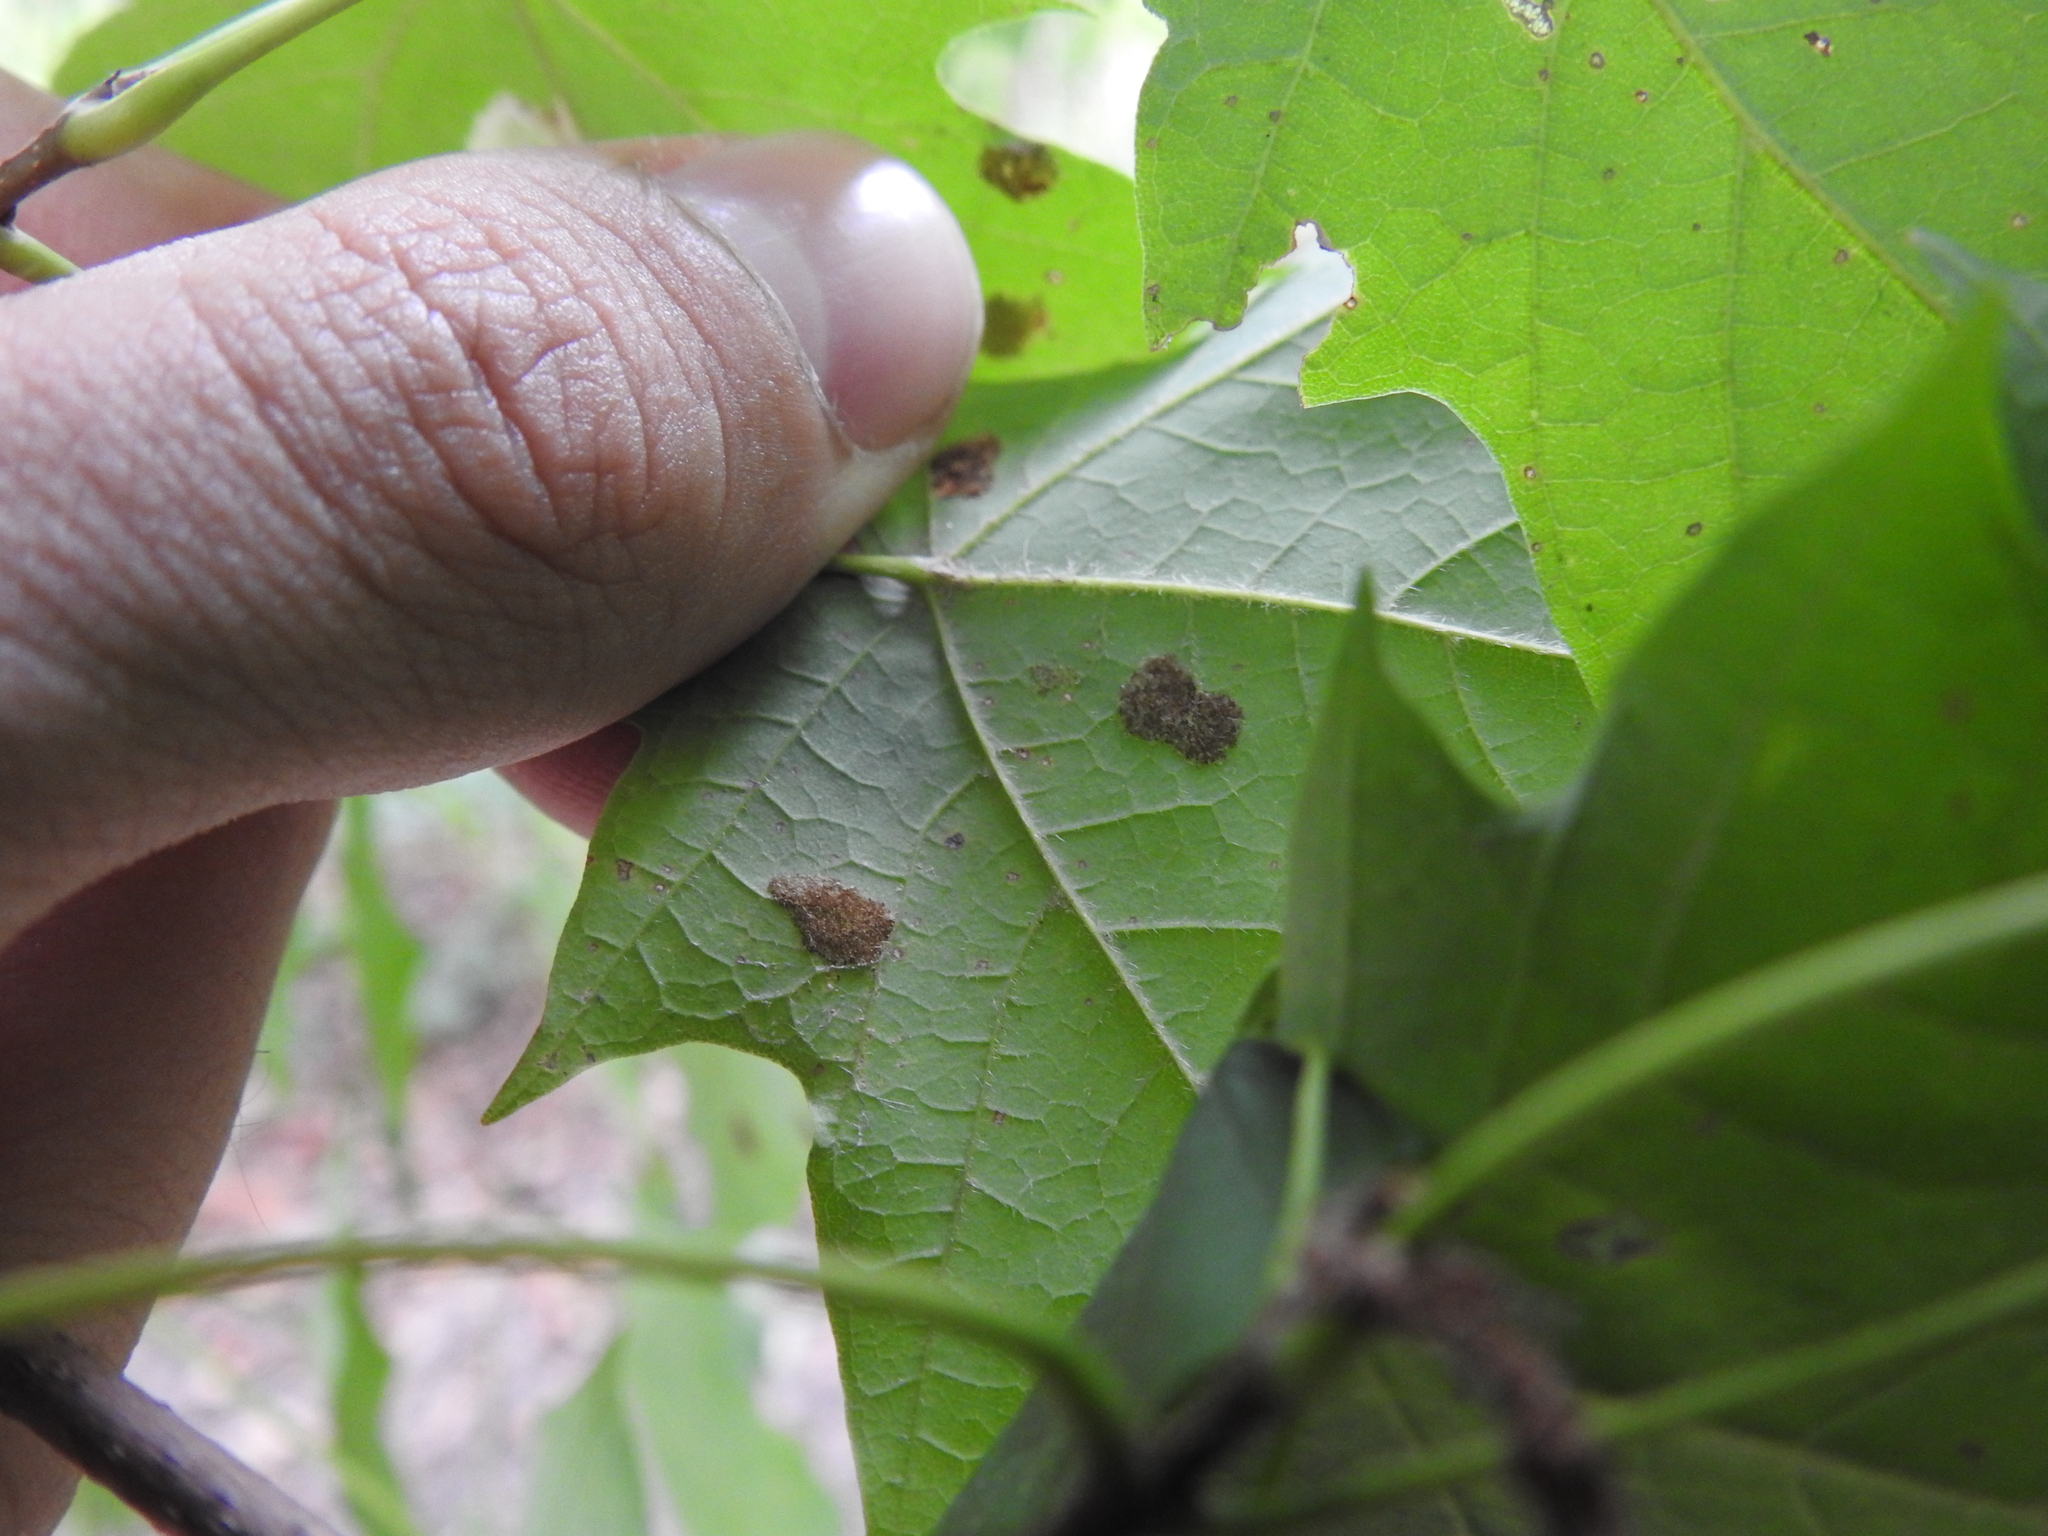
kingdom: Animalia
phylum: Arthropoda
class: Arachnida
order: Trombidiformes
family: Eriophyidae
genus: Aceria
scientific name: Aceria
